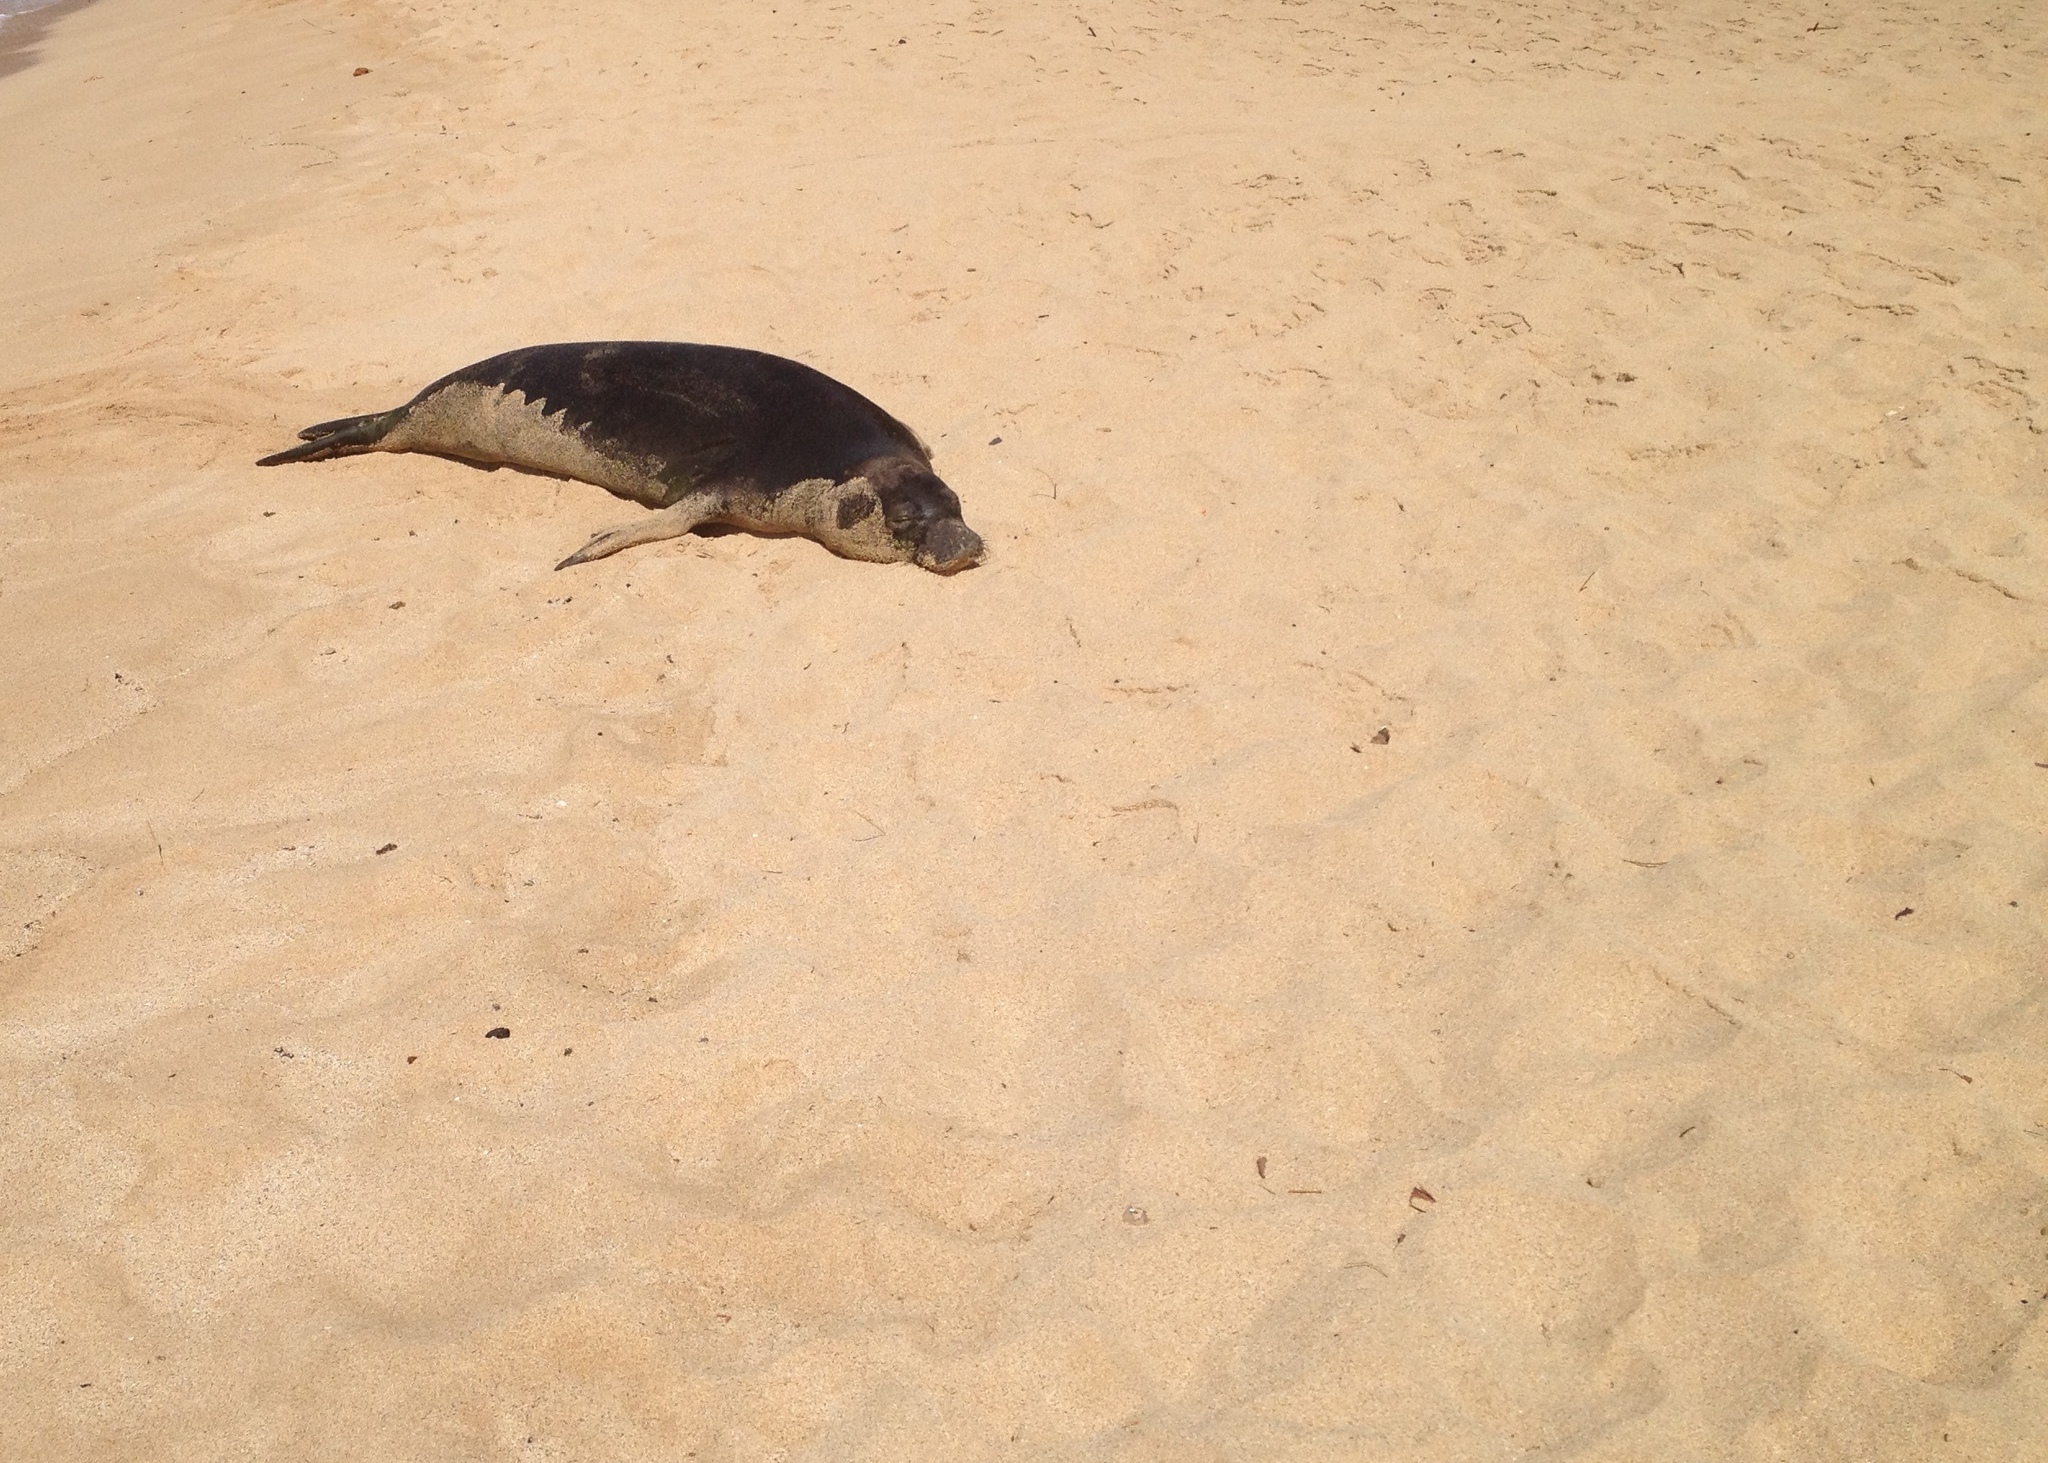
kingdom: Animalia
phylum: Chordata
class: Mammalia
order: Carnivora
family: Phocidae
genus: Neomonachus
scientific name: Neomonachus schauinslandi
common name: Hawaiian monk seal
